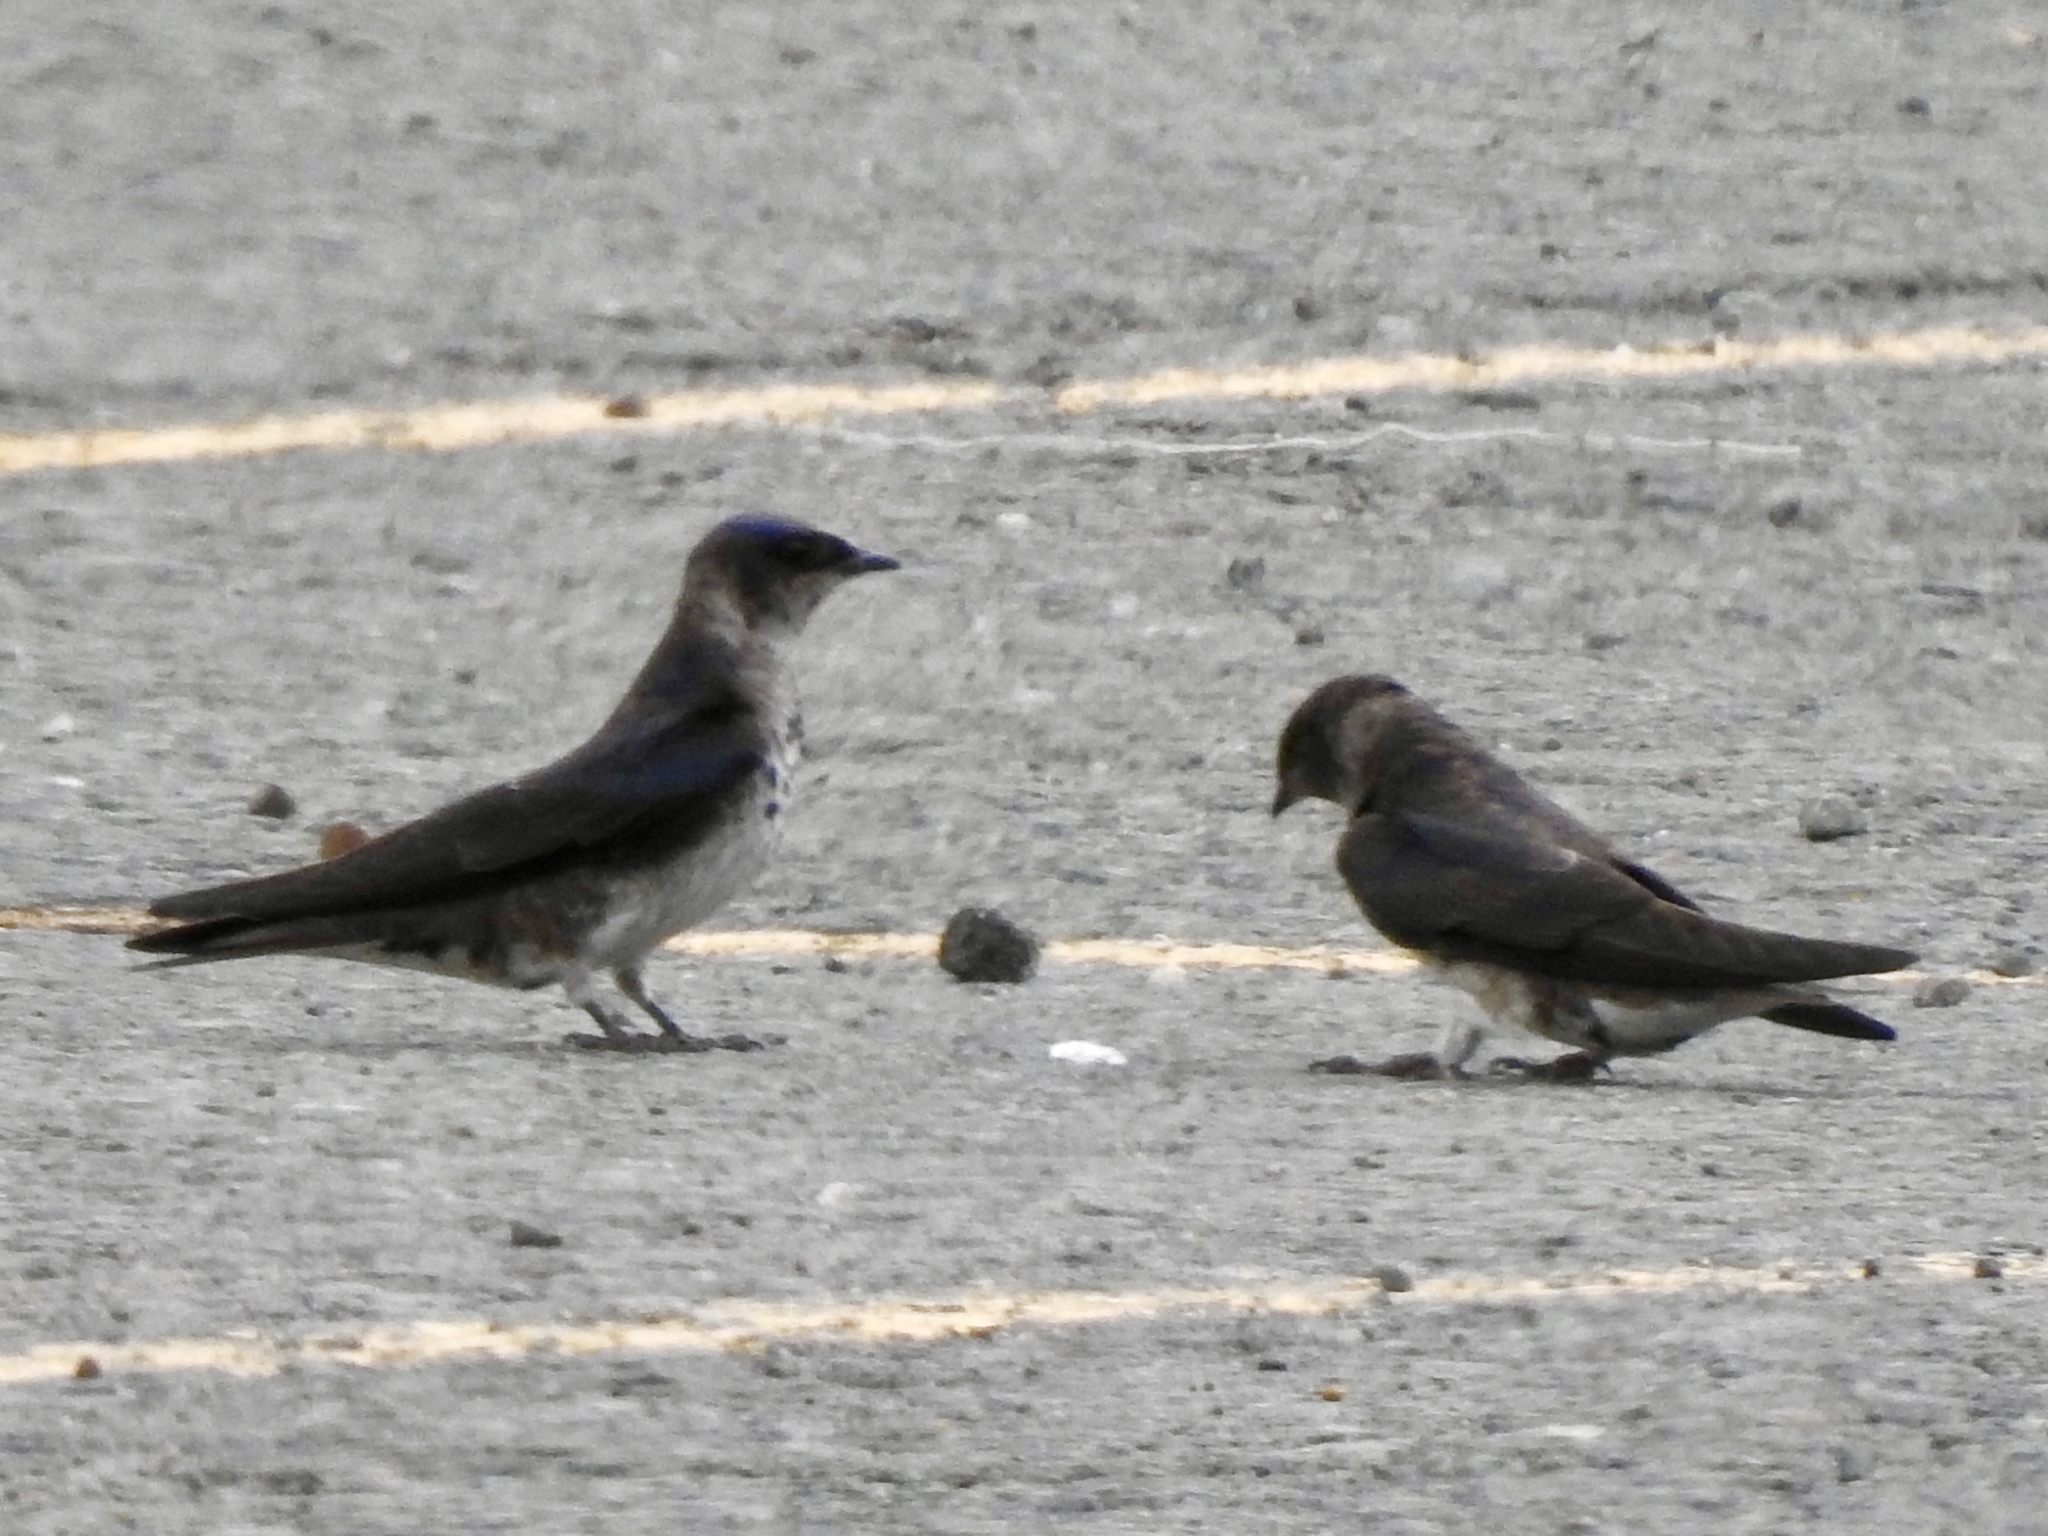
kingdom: Animalia
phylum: Chordata
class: Aves
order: Passeriformes
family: Hirundinidae
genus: Progne
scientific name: Progne subis
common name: Purple martin
